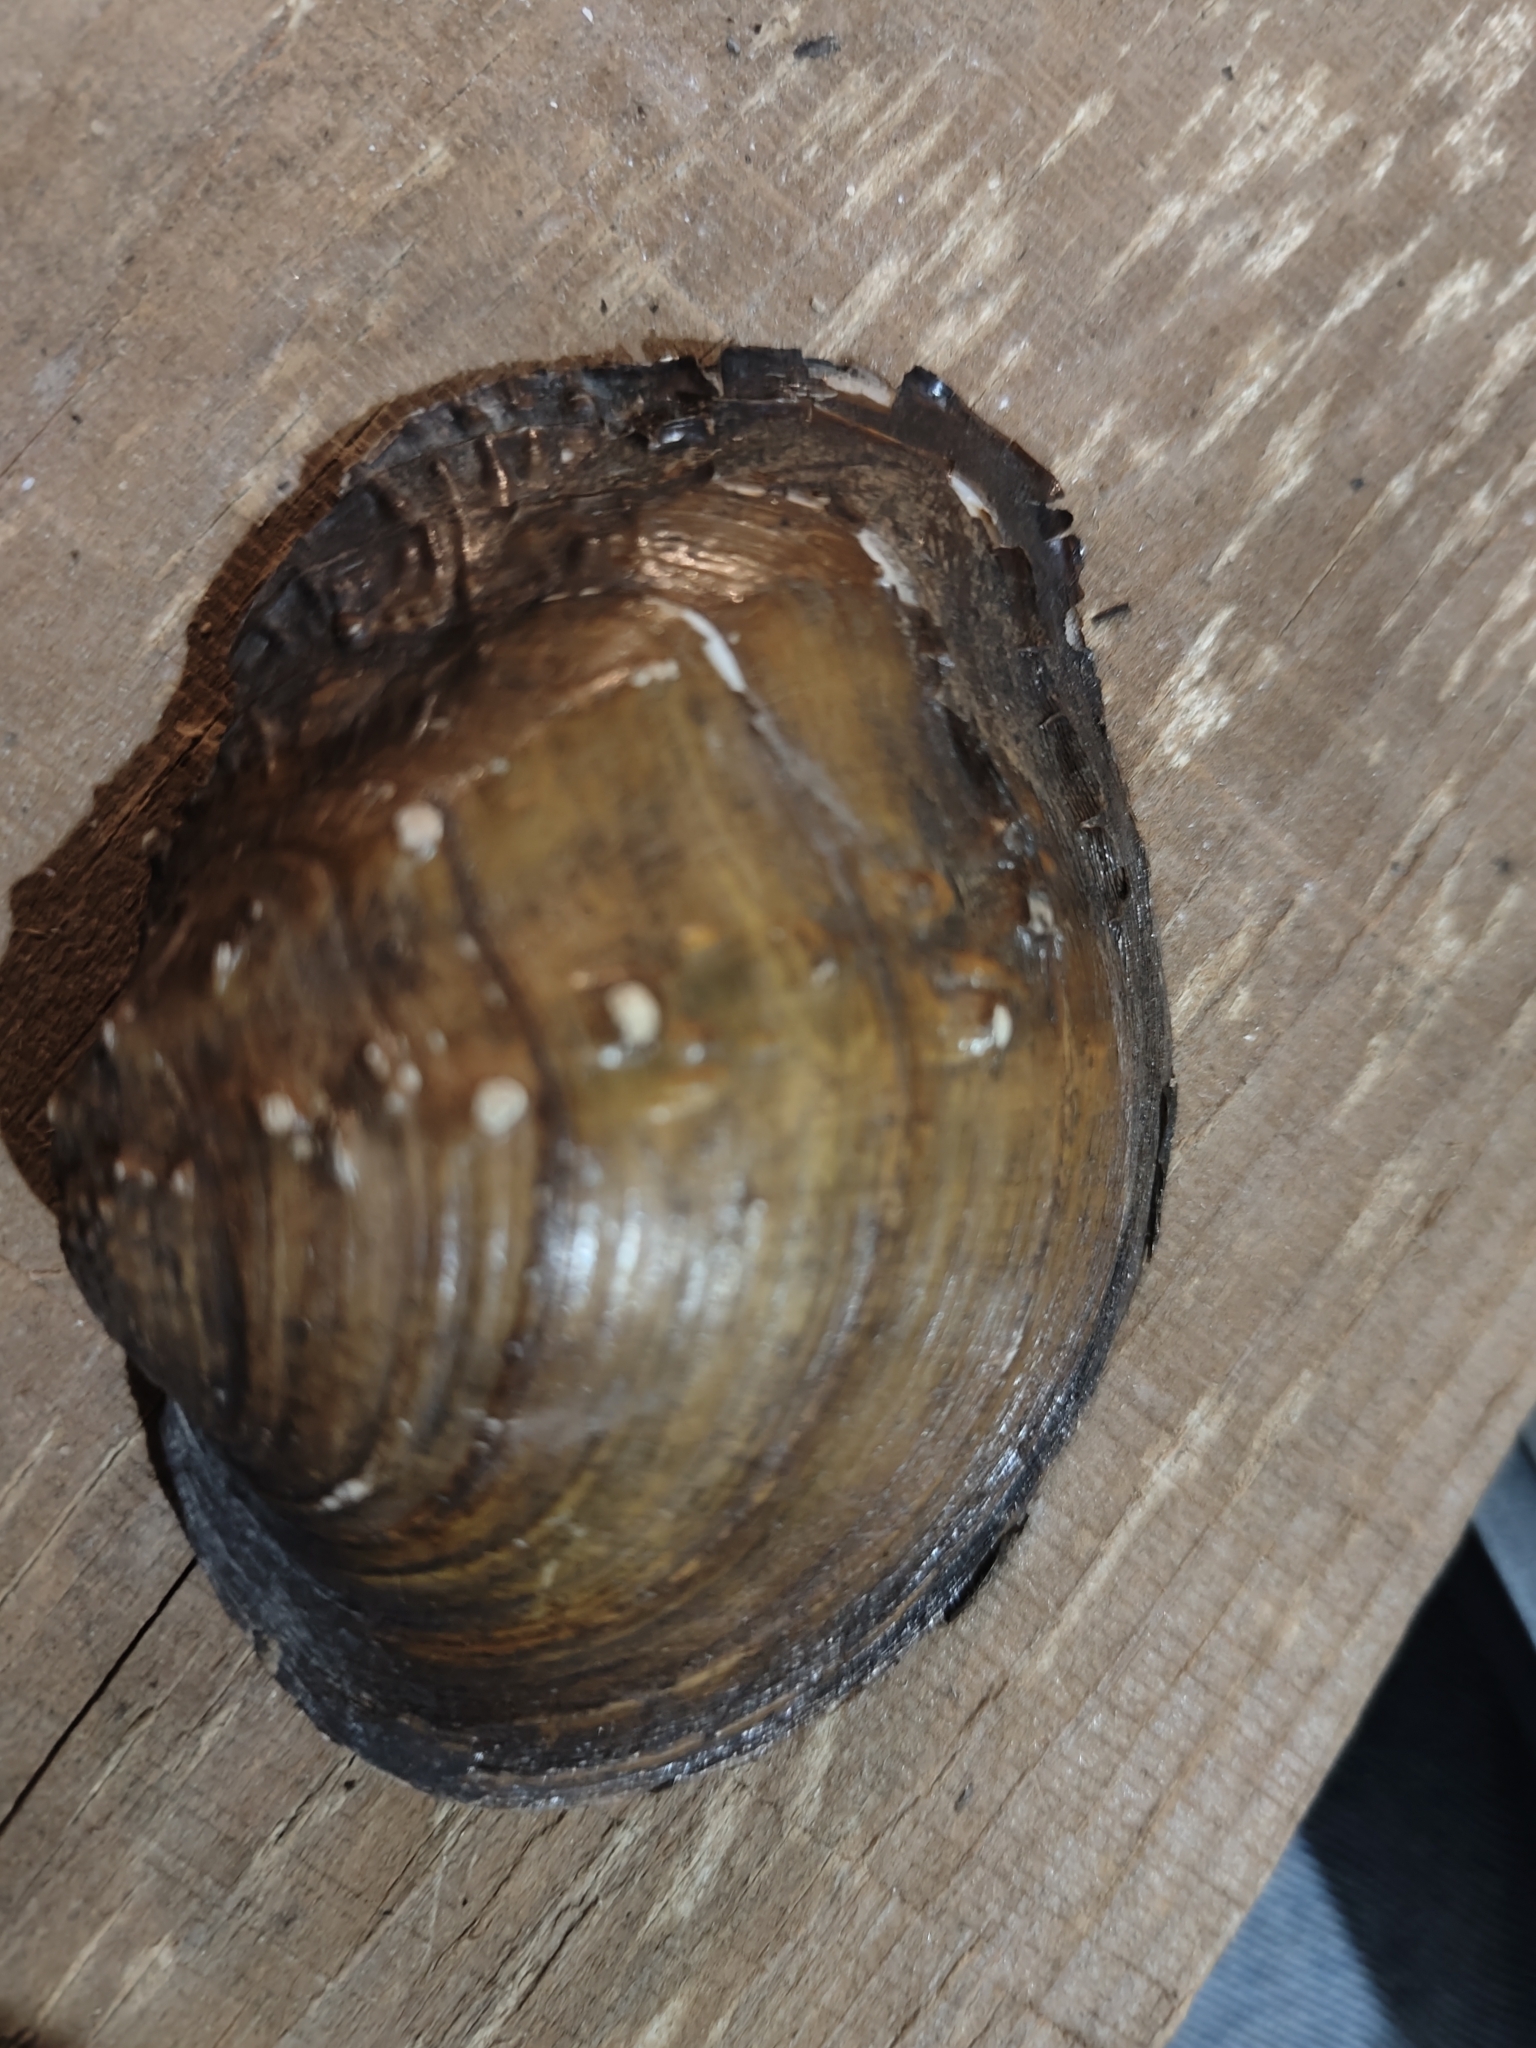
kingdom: Animalia
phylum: Mollusca
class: Bivalvia
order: Unionida
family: Unionidae
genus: Quadrula
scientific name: Quadrula quadrula
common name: Mapleleaf
